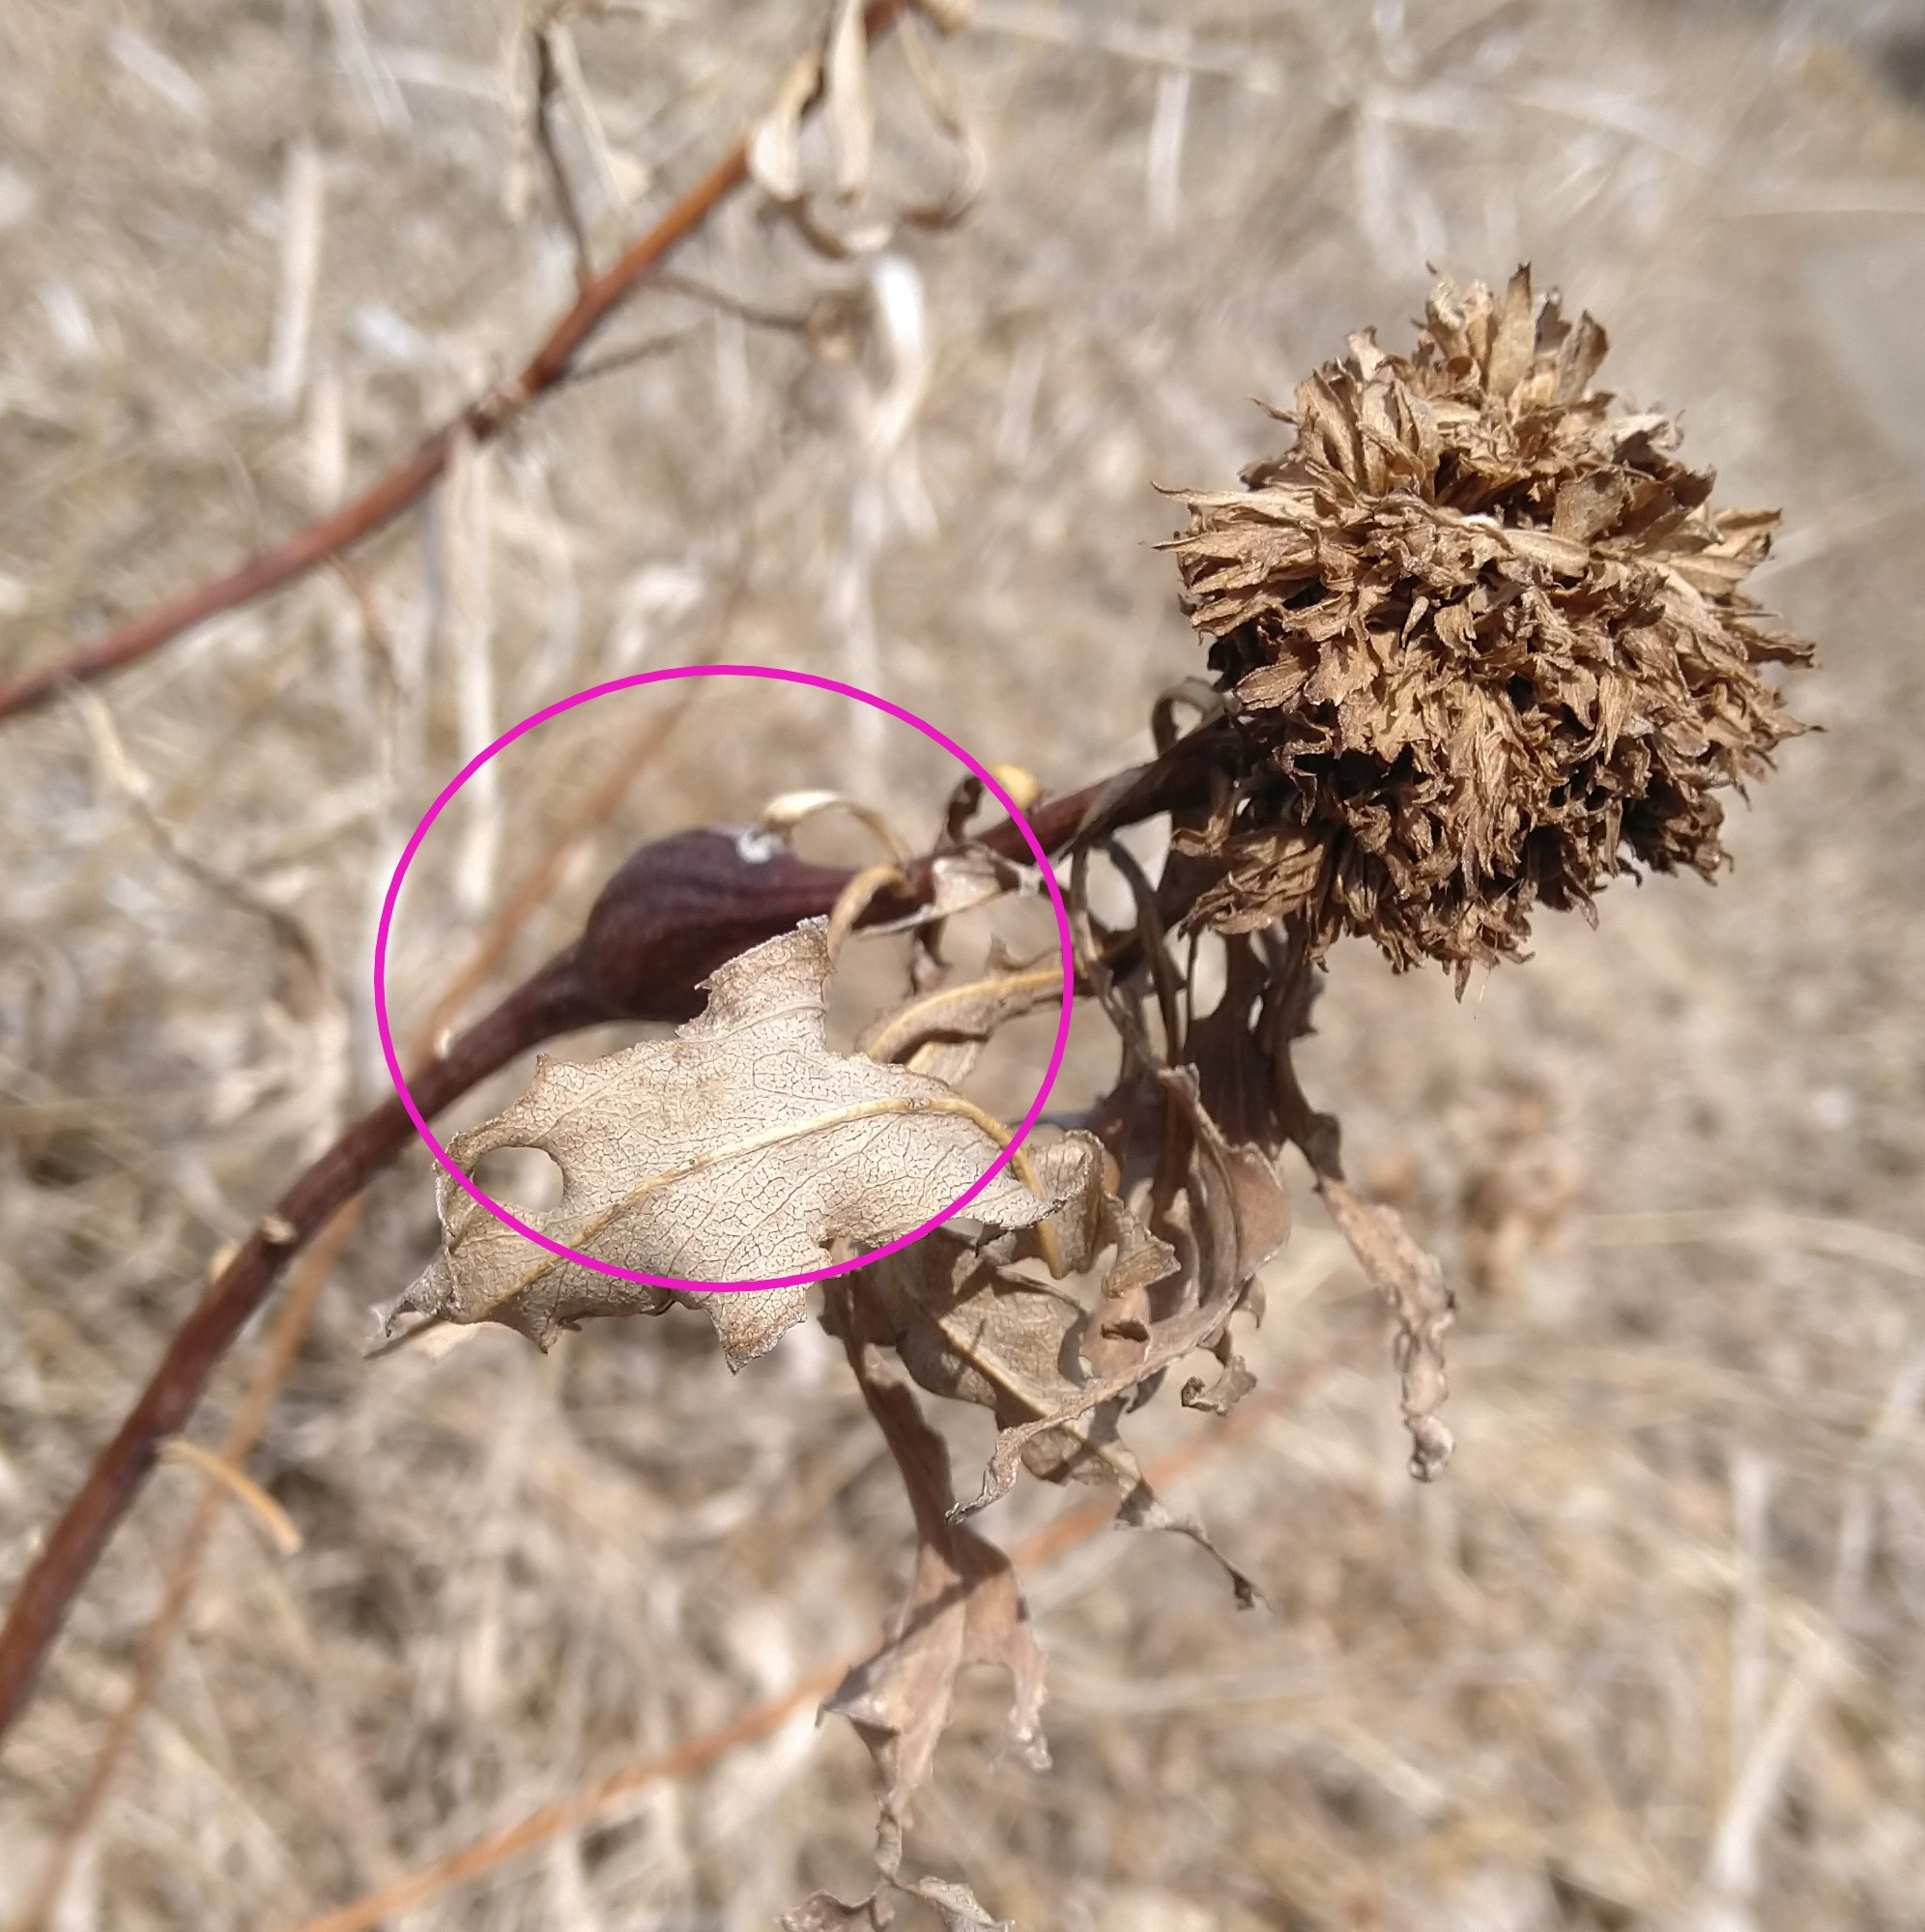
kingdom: Animalia
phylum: Arthropoda
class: Insecta
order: Diptera
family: Tephritidae
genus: Eurosta
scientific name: Eurosta solidaginis
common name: Goldenrod gall fly
